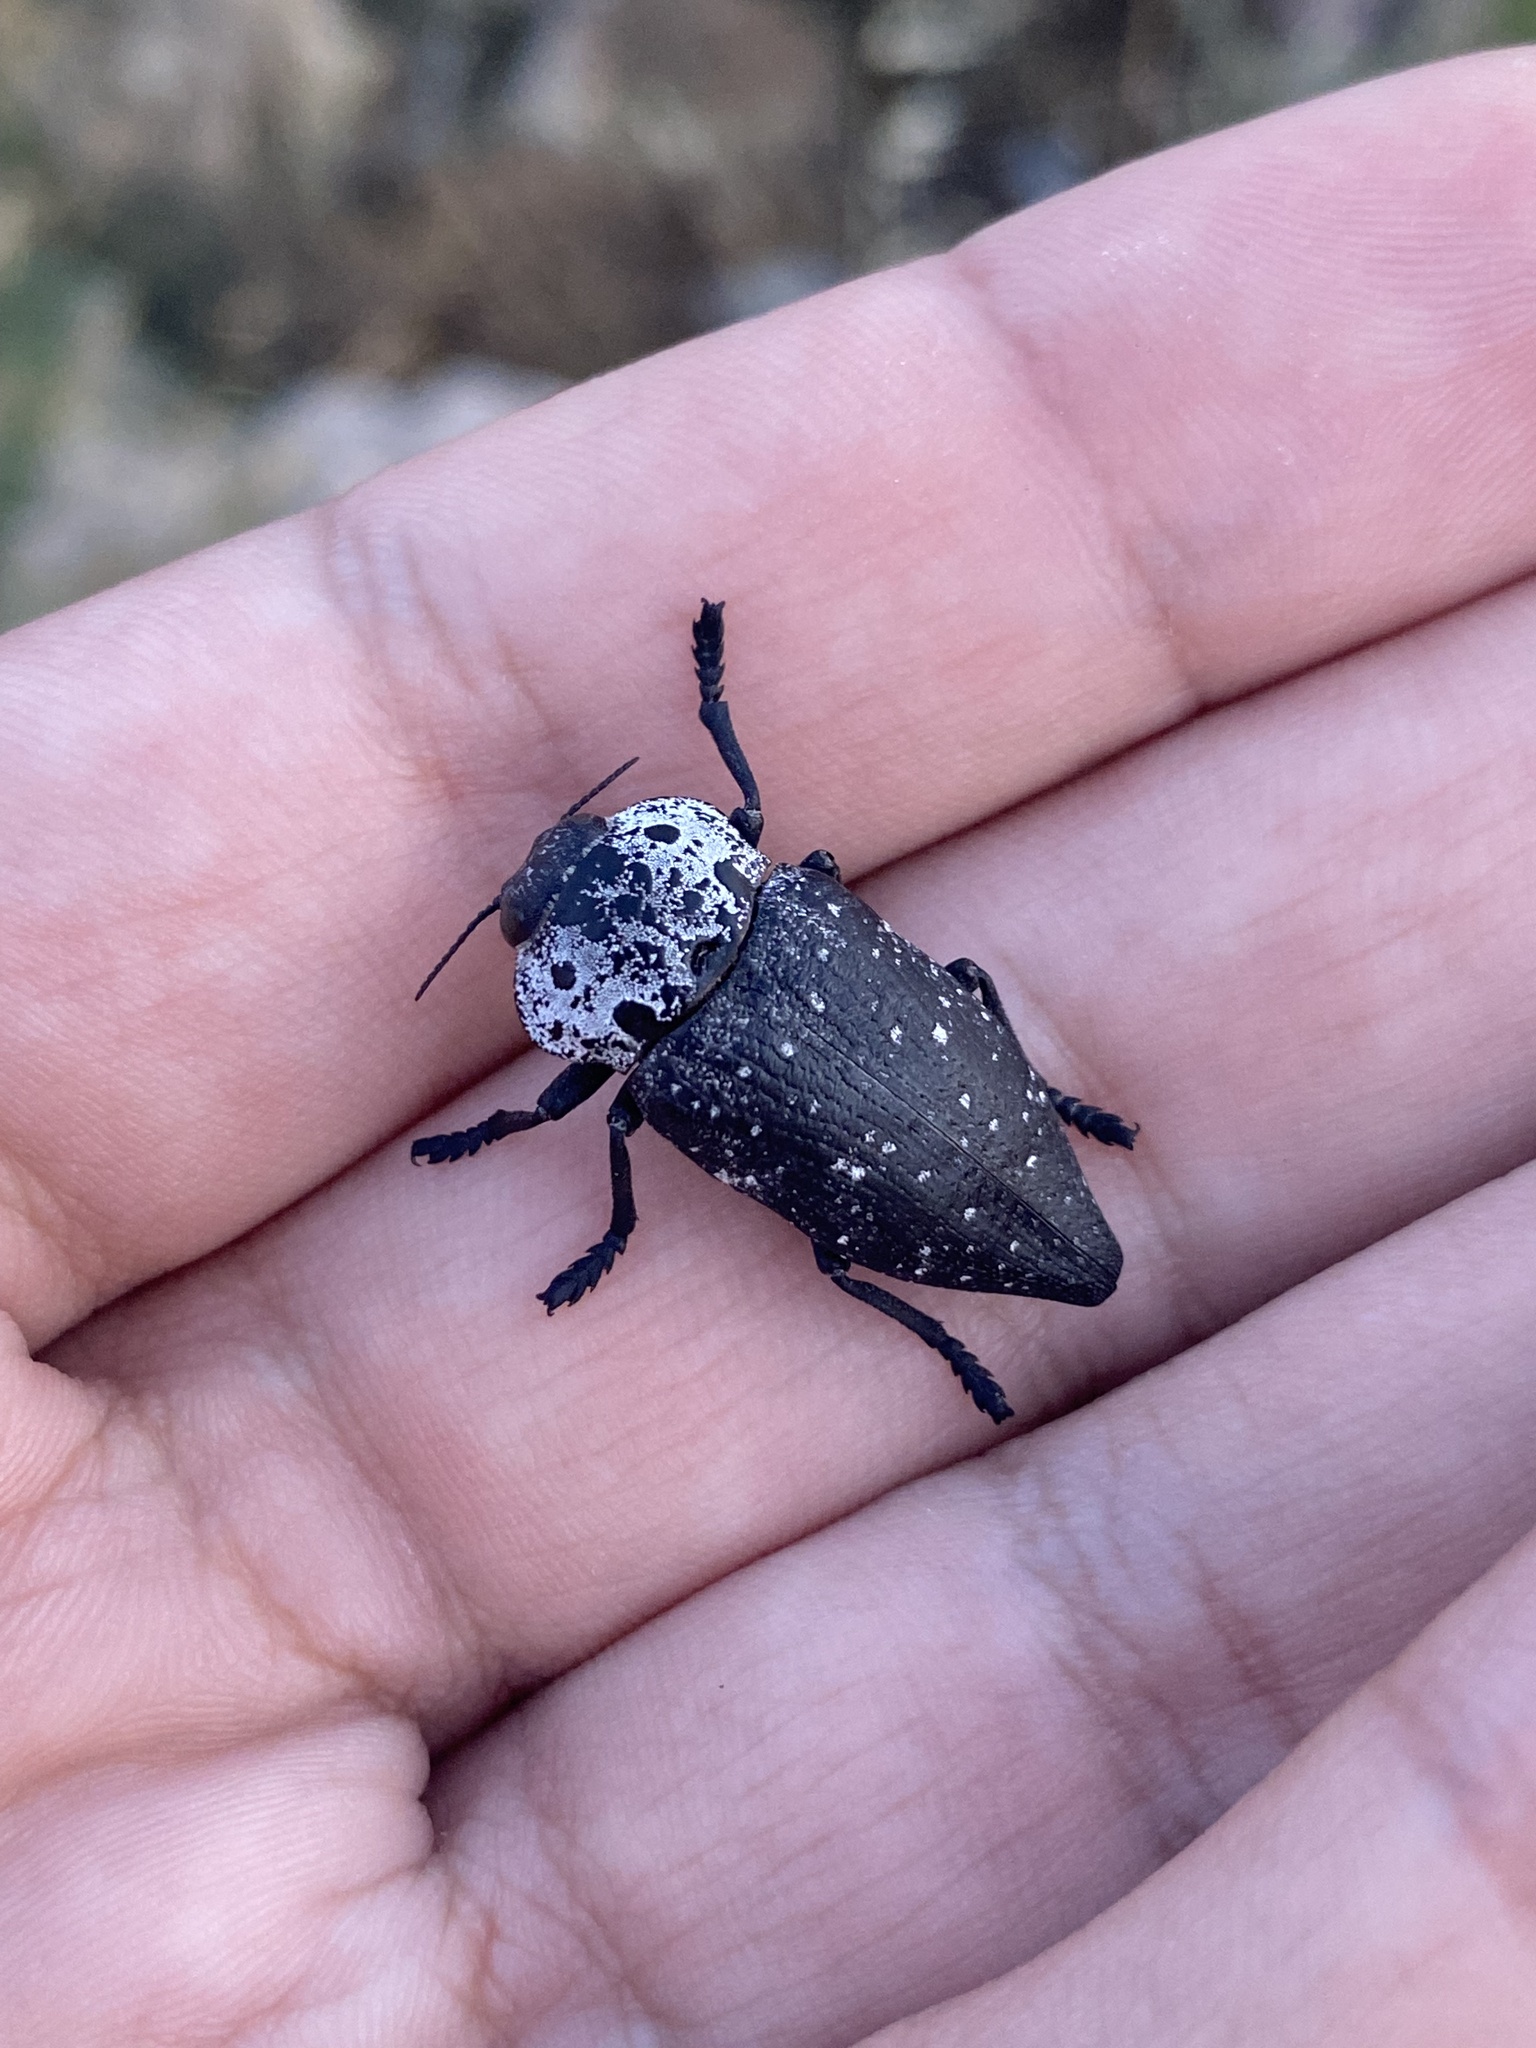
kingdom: Animalia
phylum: Arthropoda
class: Insecta
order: Coleoptera
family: Buprestidae
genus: Capnodis
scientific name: Capnodis tenebrionis
